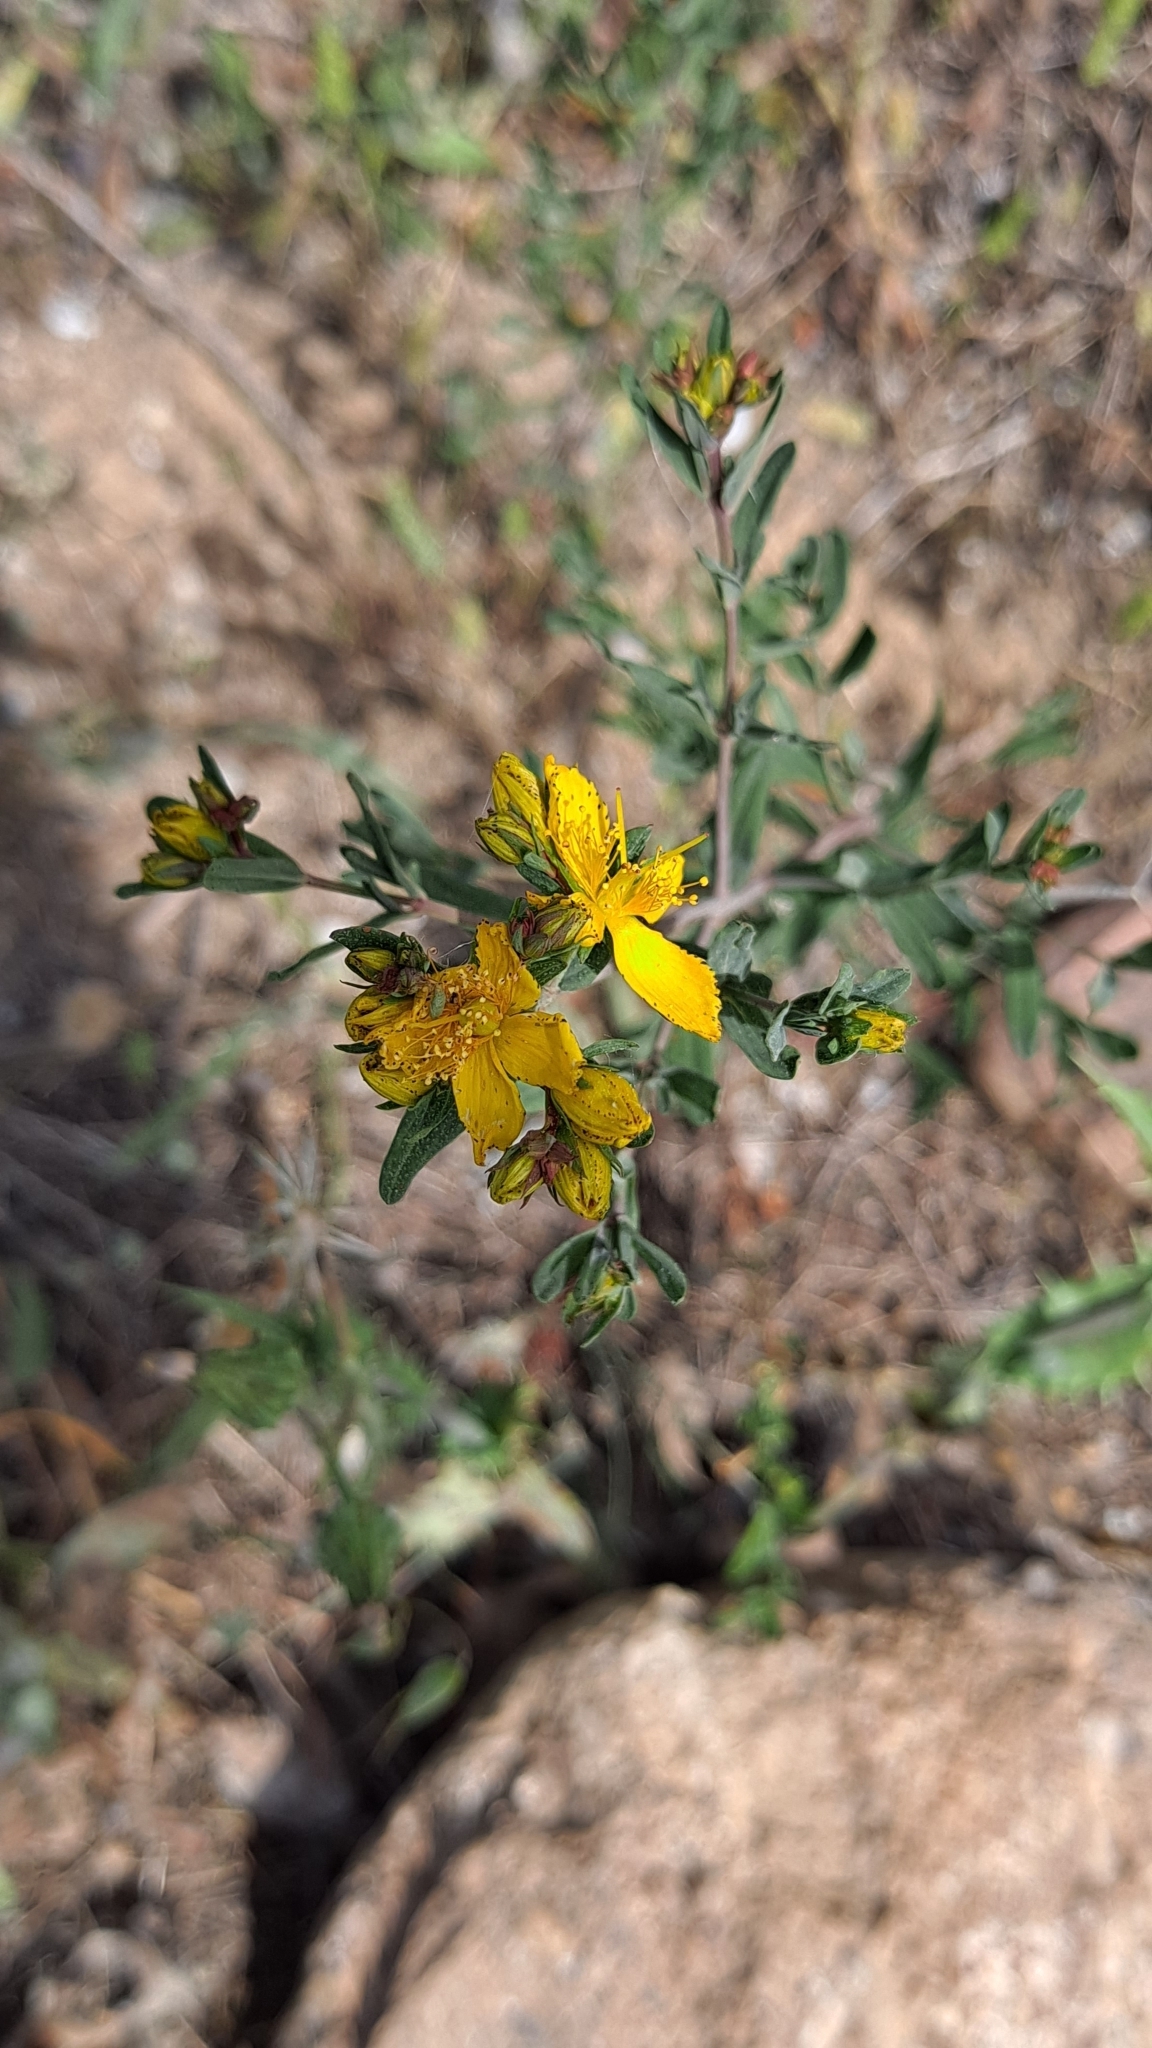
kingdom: Plantae
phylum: Tracheophyta
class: Magnoliopsida
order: Malpighiales
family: Hypericaceae
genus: Hypericum
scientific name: Hypericum perforatum
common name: Common st. johnswort
